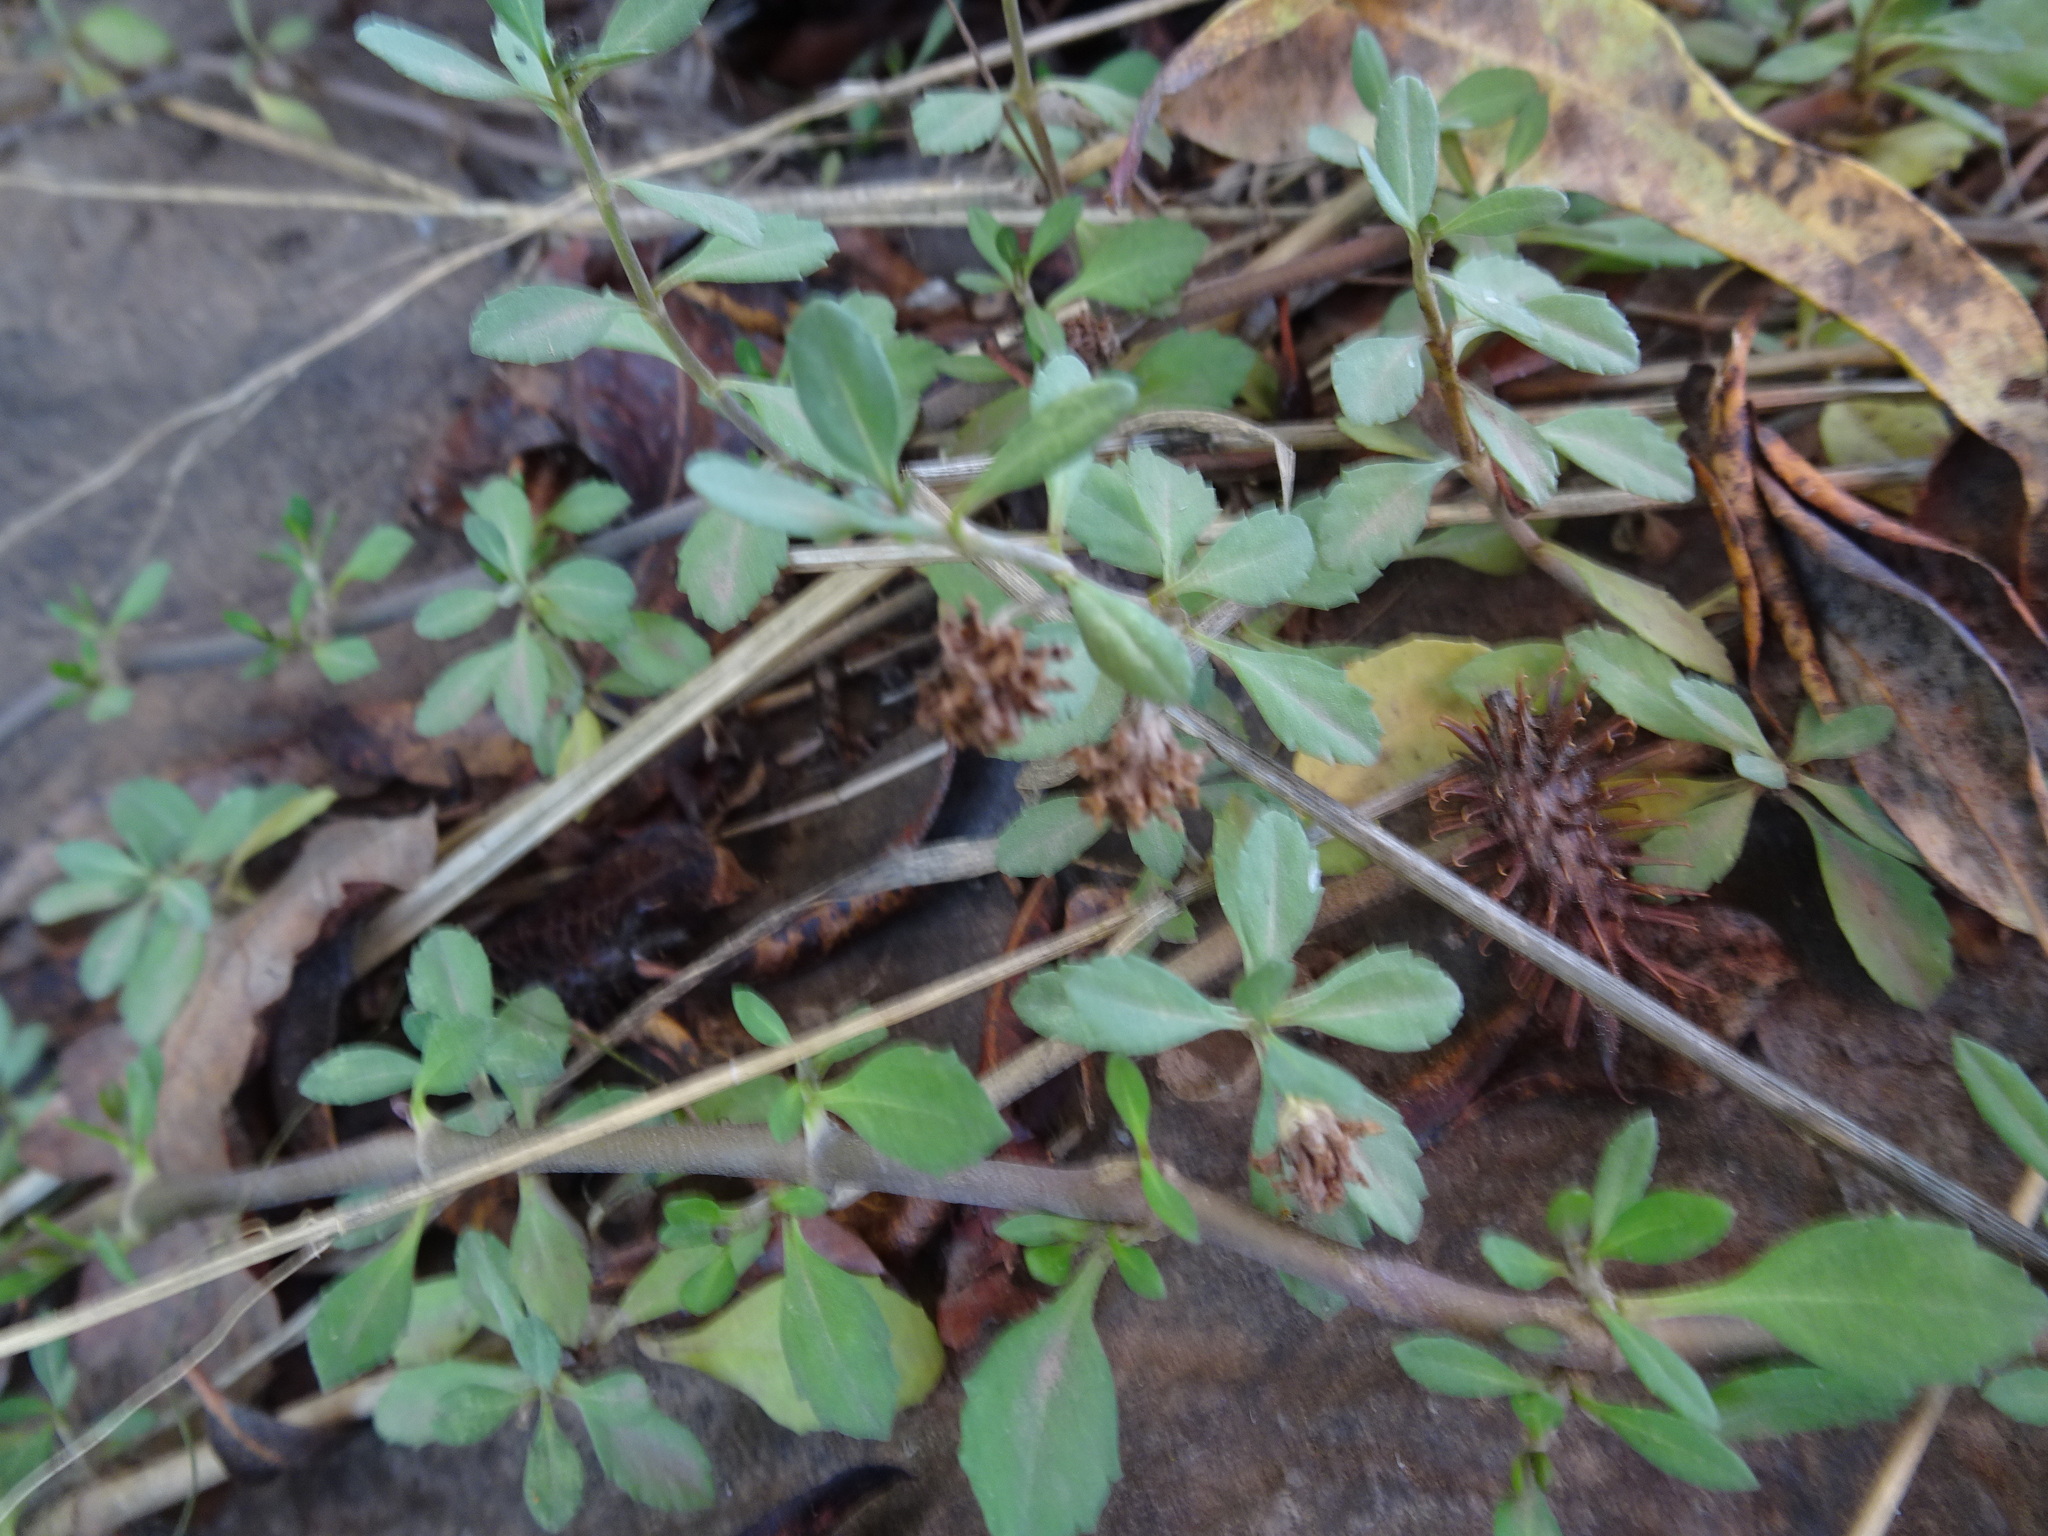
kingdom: Plantae
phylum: Tracheophyta
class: Magnoliopsida
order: Lamiales
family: Verbenaceae
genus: Phyla
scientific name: Phyla nodiflora
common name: Frogfruit
